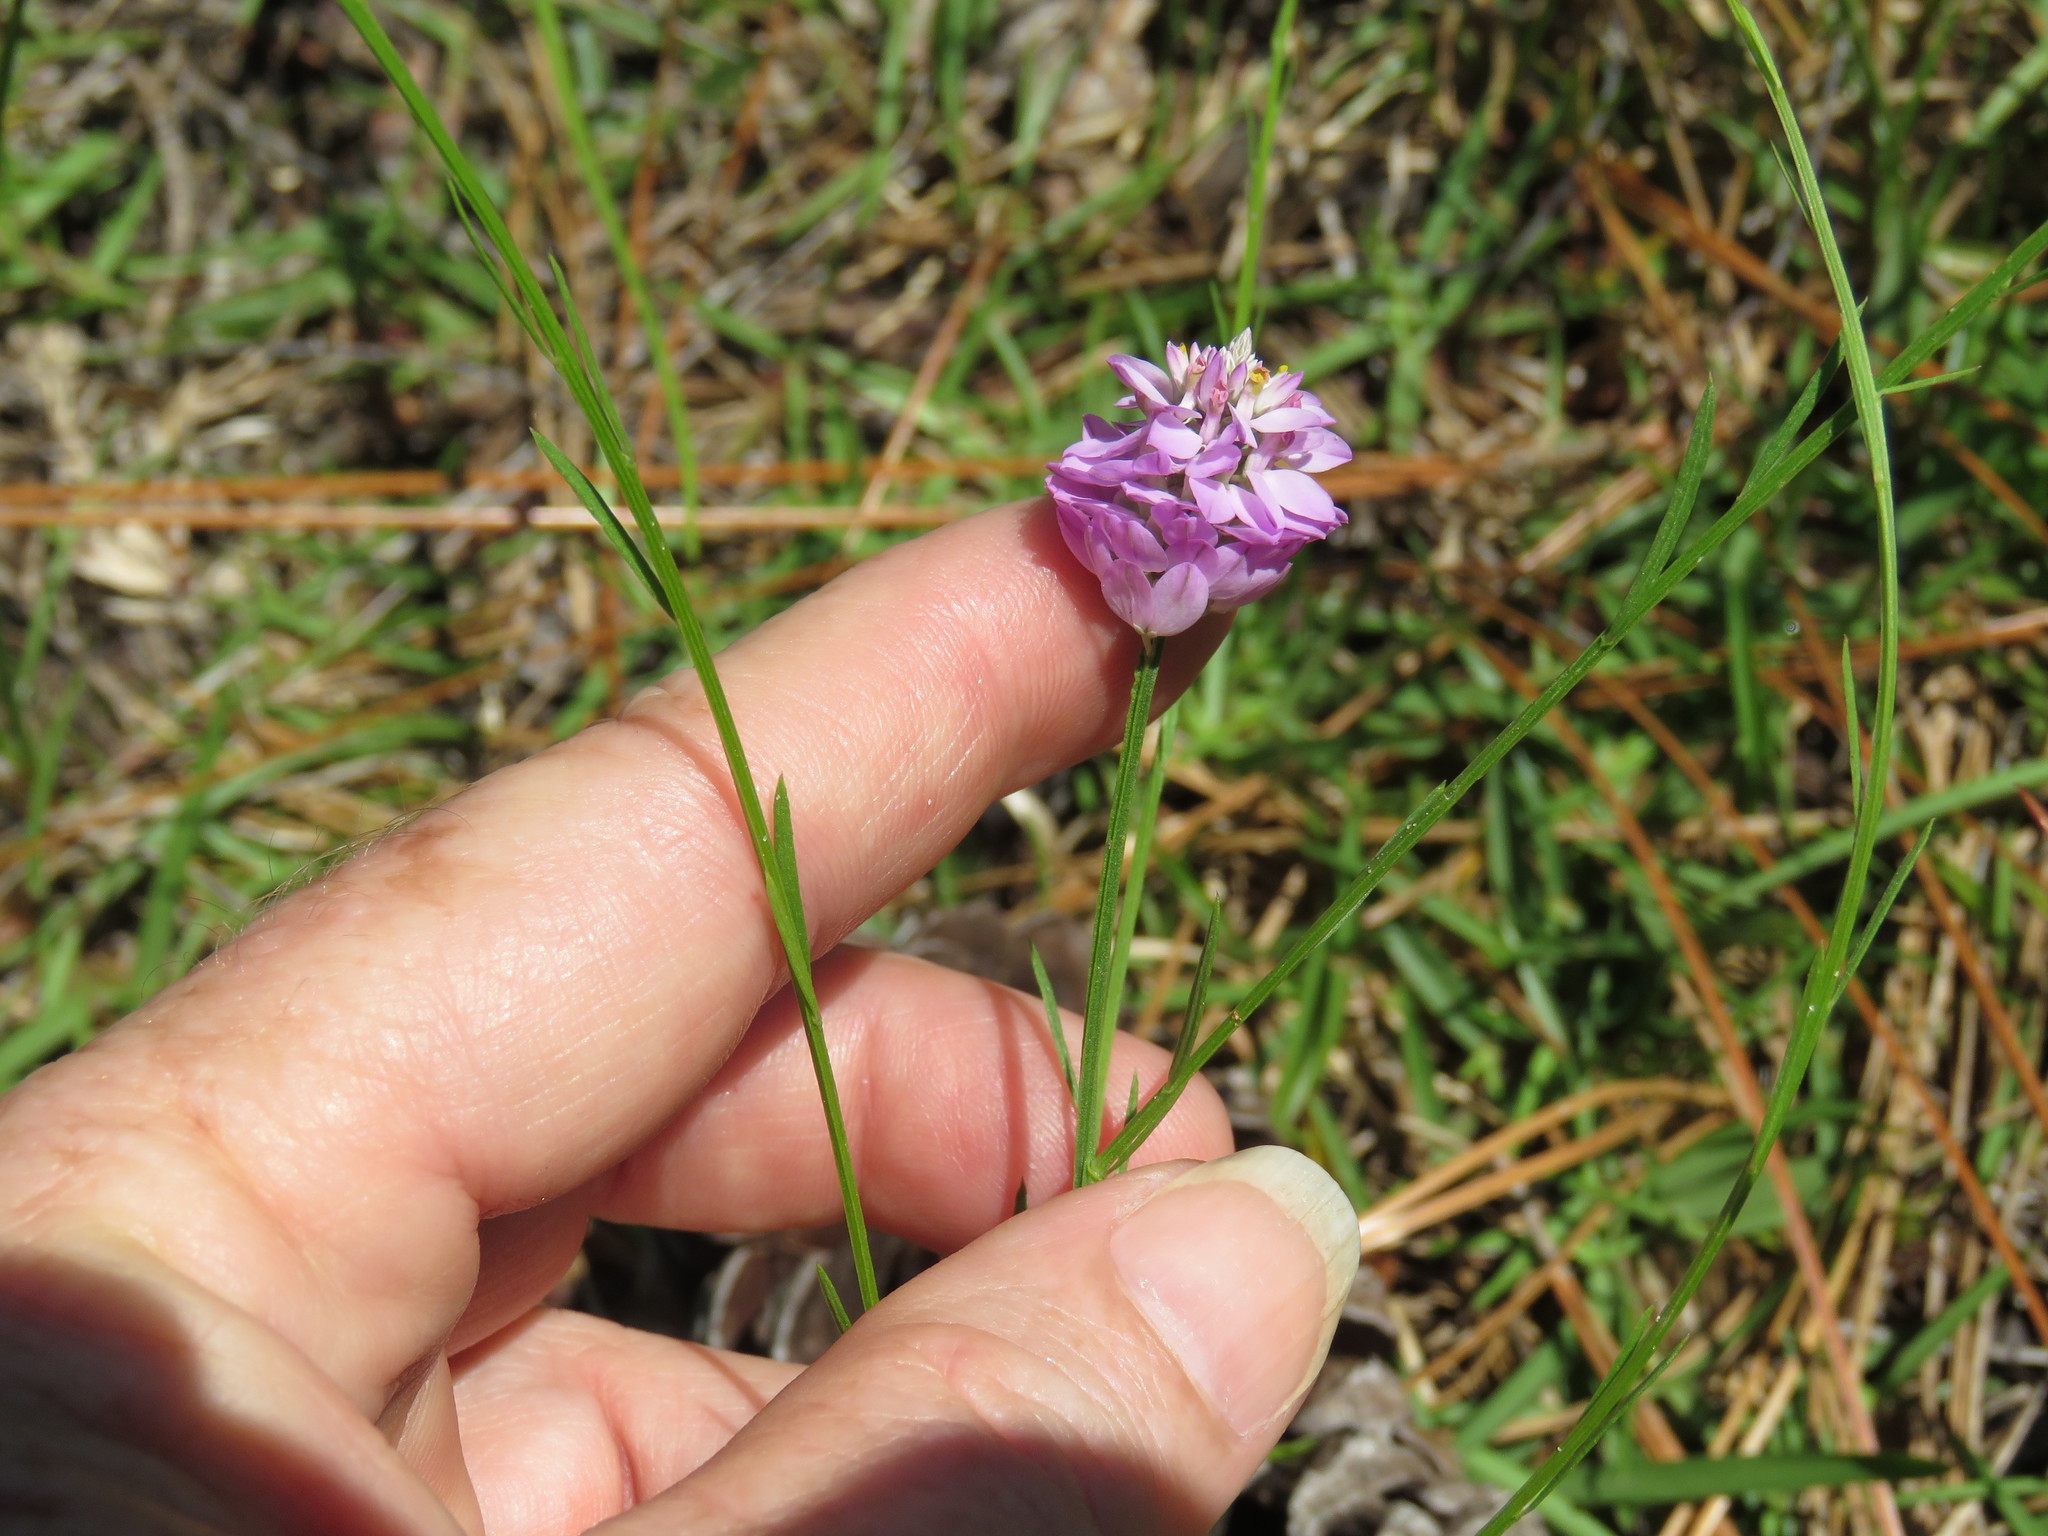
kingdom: Plantae
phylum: Tracheophyta
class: Magnoliopsida
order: Fabales
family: Polygalaceae
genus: Polygala
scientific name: Polygala mariana
